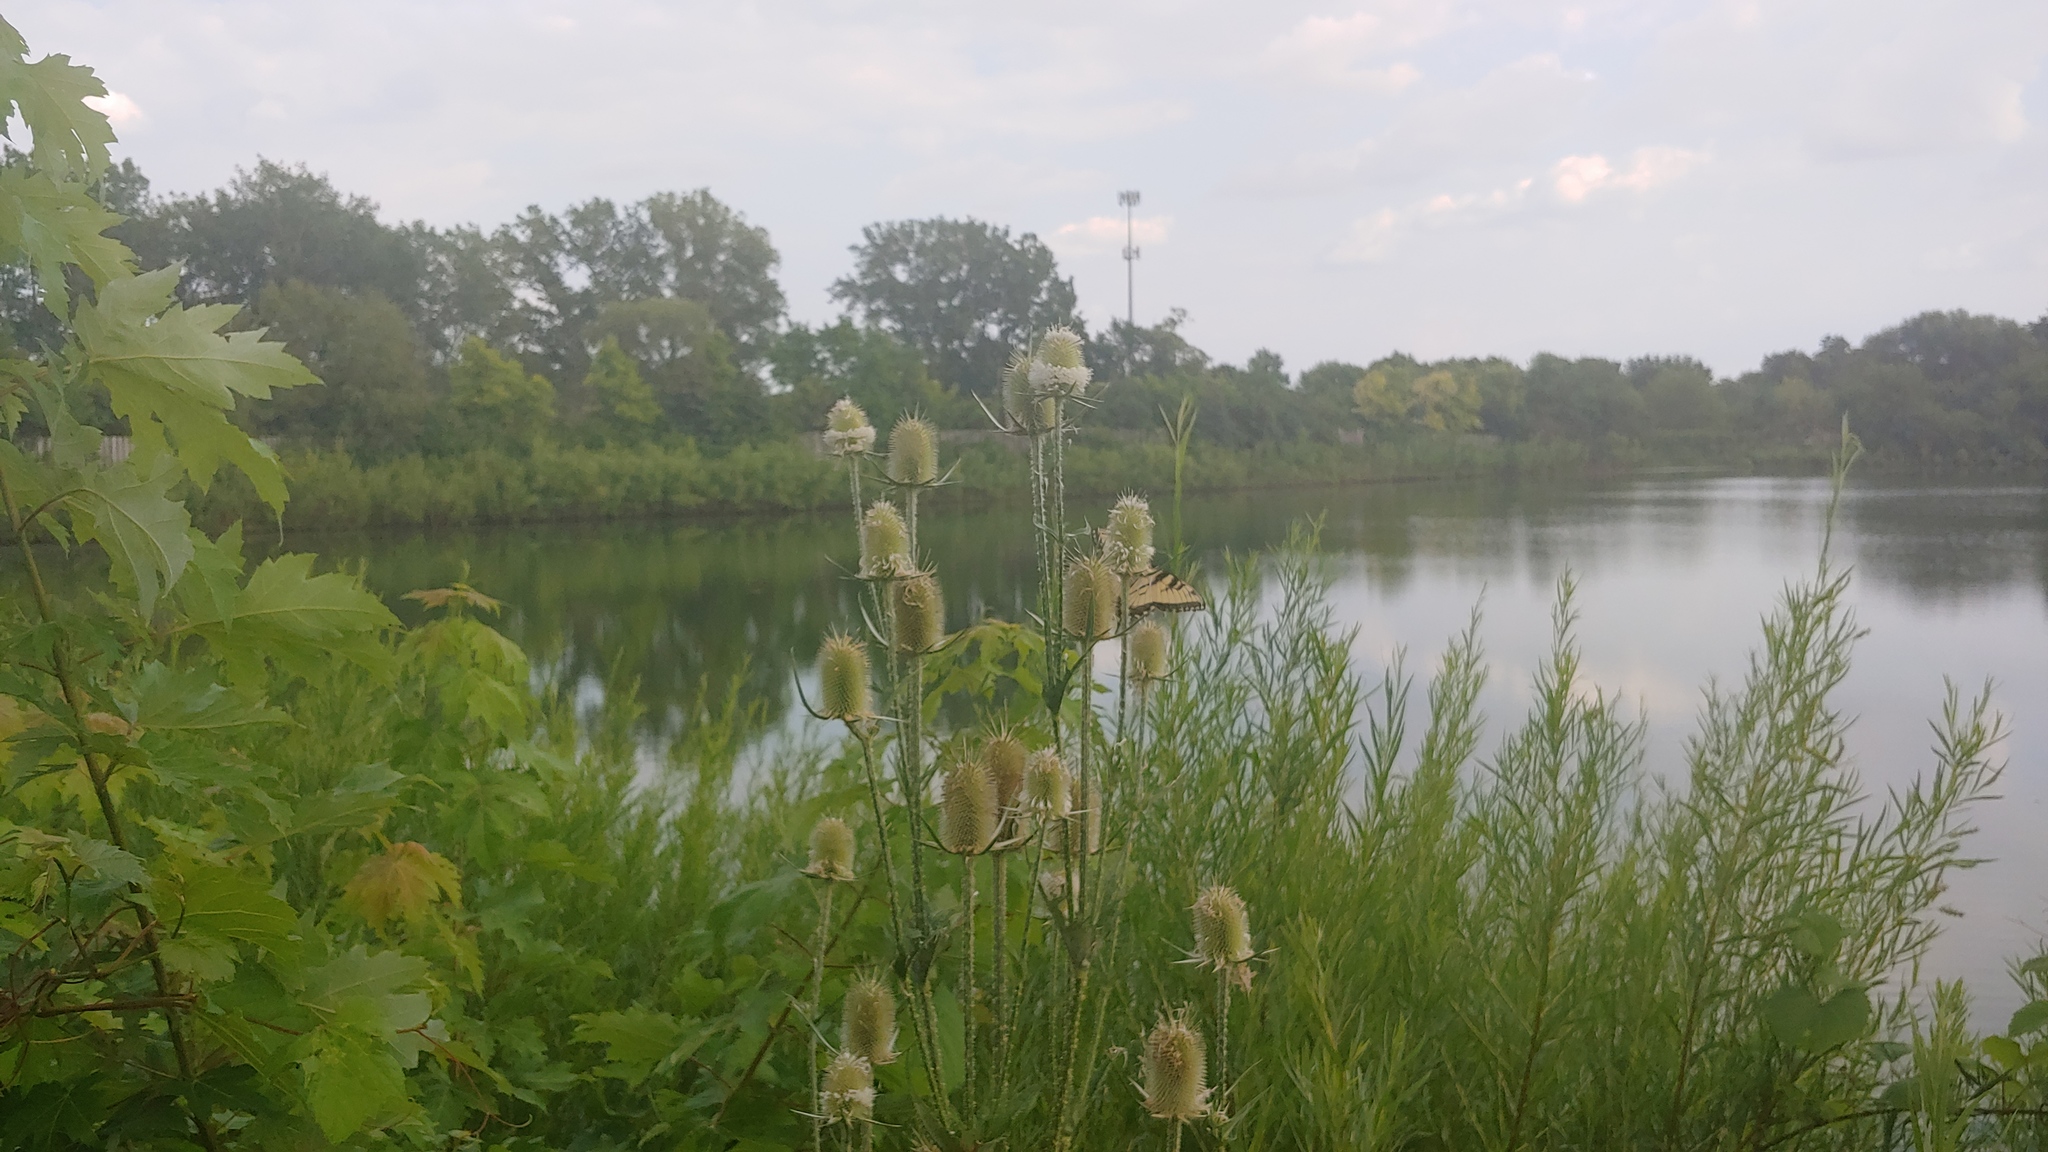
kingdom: Animalia
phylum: Arthropoda
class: Insecta
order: Lepidoptera
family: Papilionidae
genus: Papilio
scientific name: Papilio glaucus
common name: Tiger swallowtail
